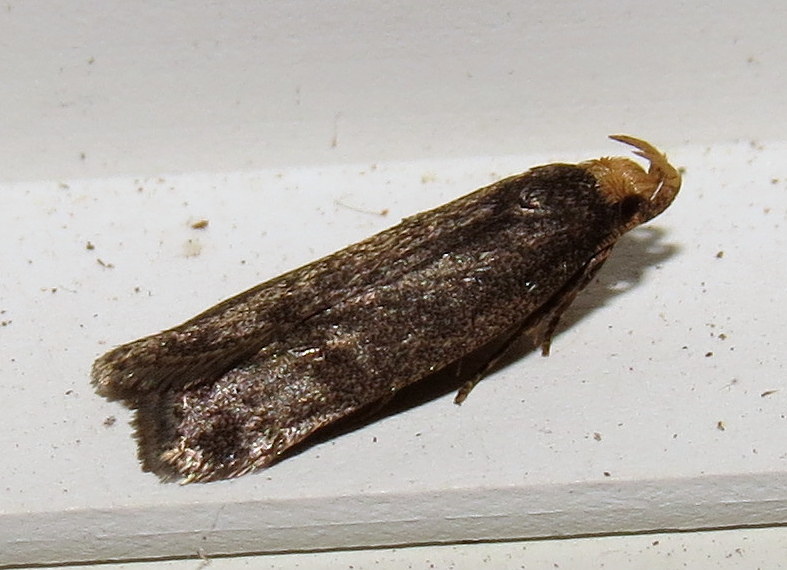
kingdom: Animalia
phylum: Arthropoda
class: Insecta
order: Lepidoptera
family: Autostichidae
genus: Glyphidocera
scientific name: Glyphidocera lithodoxa
